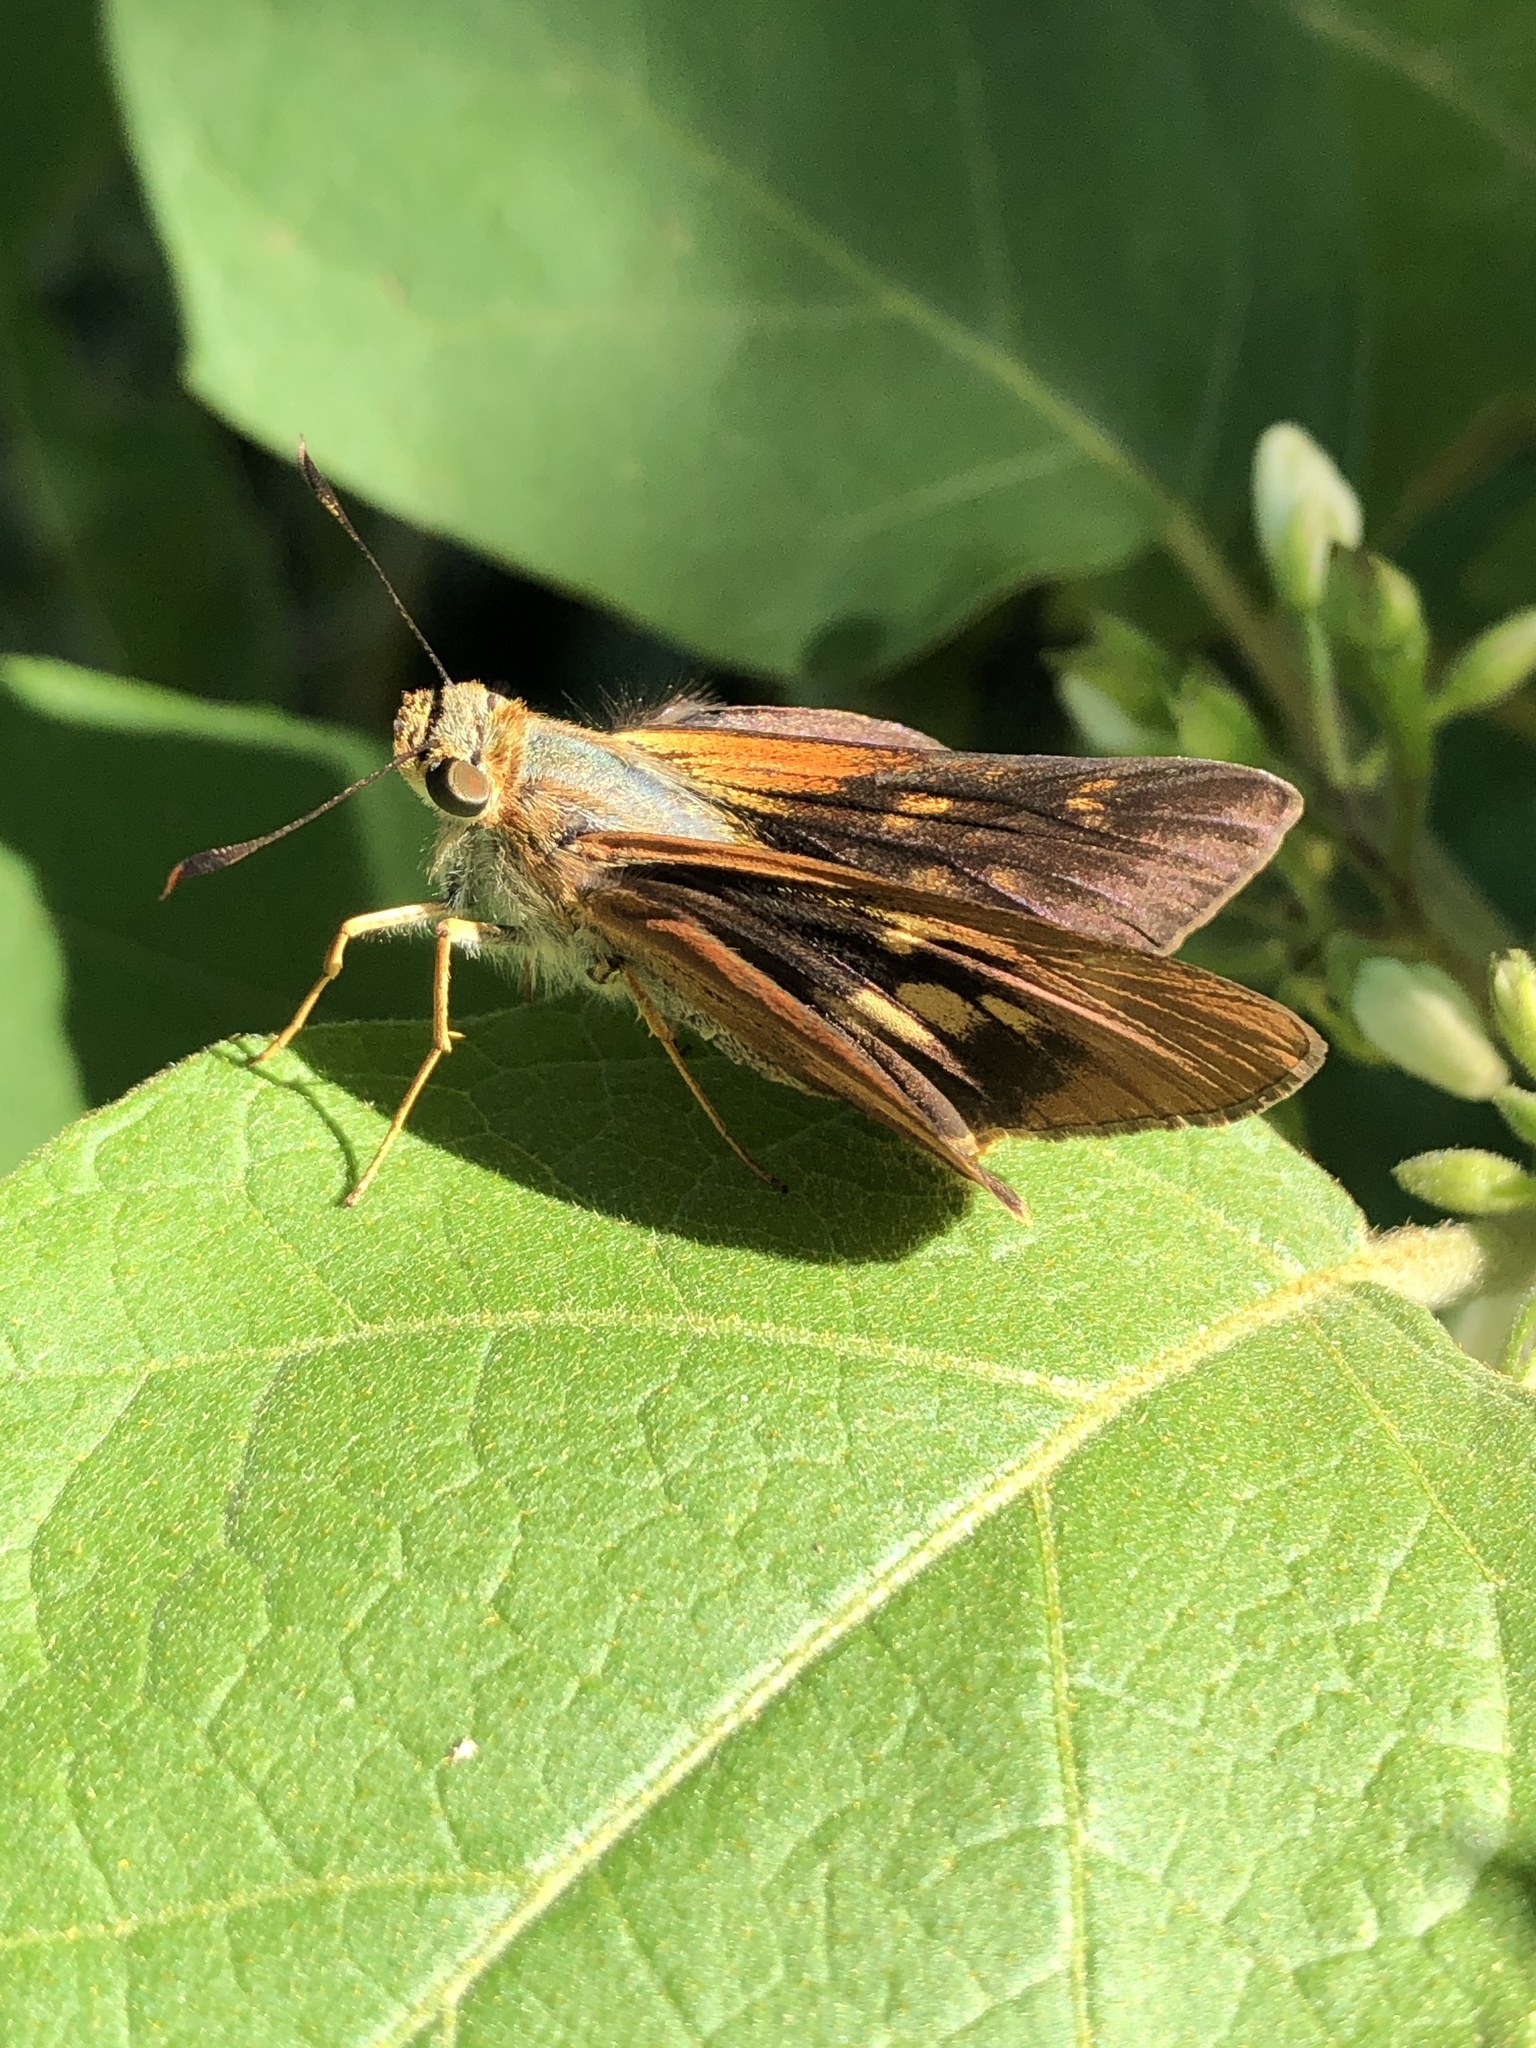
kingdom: Animalia
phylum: Arthropoda
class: Insecta
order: Lepidoptera
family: Hesperiidae
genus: Cephrenes
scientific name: Cephrenes augiades
